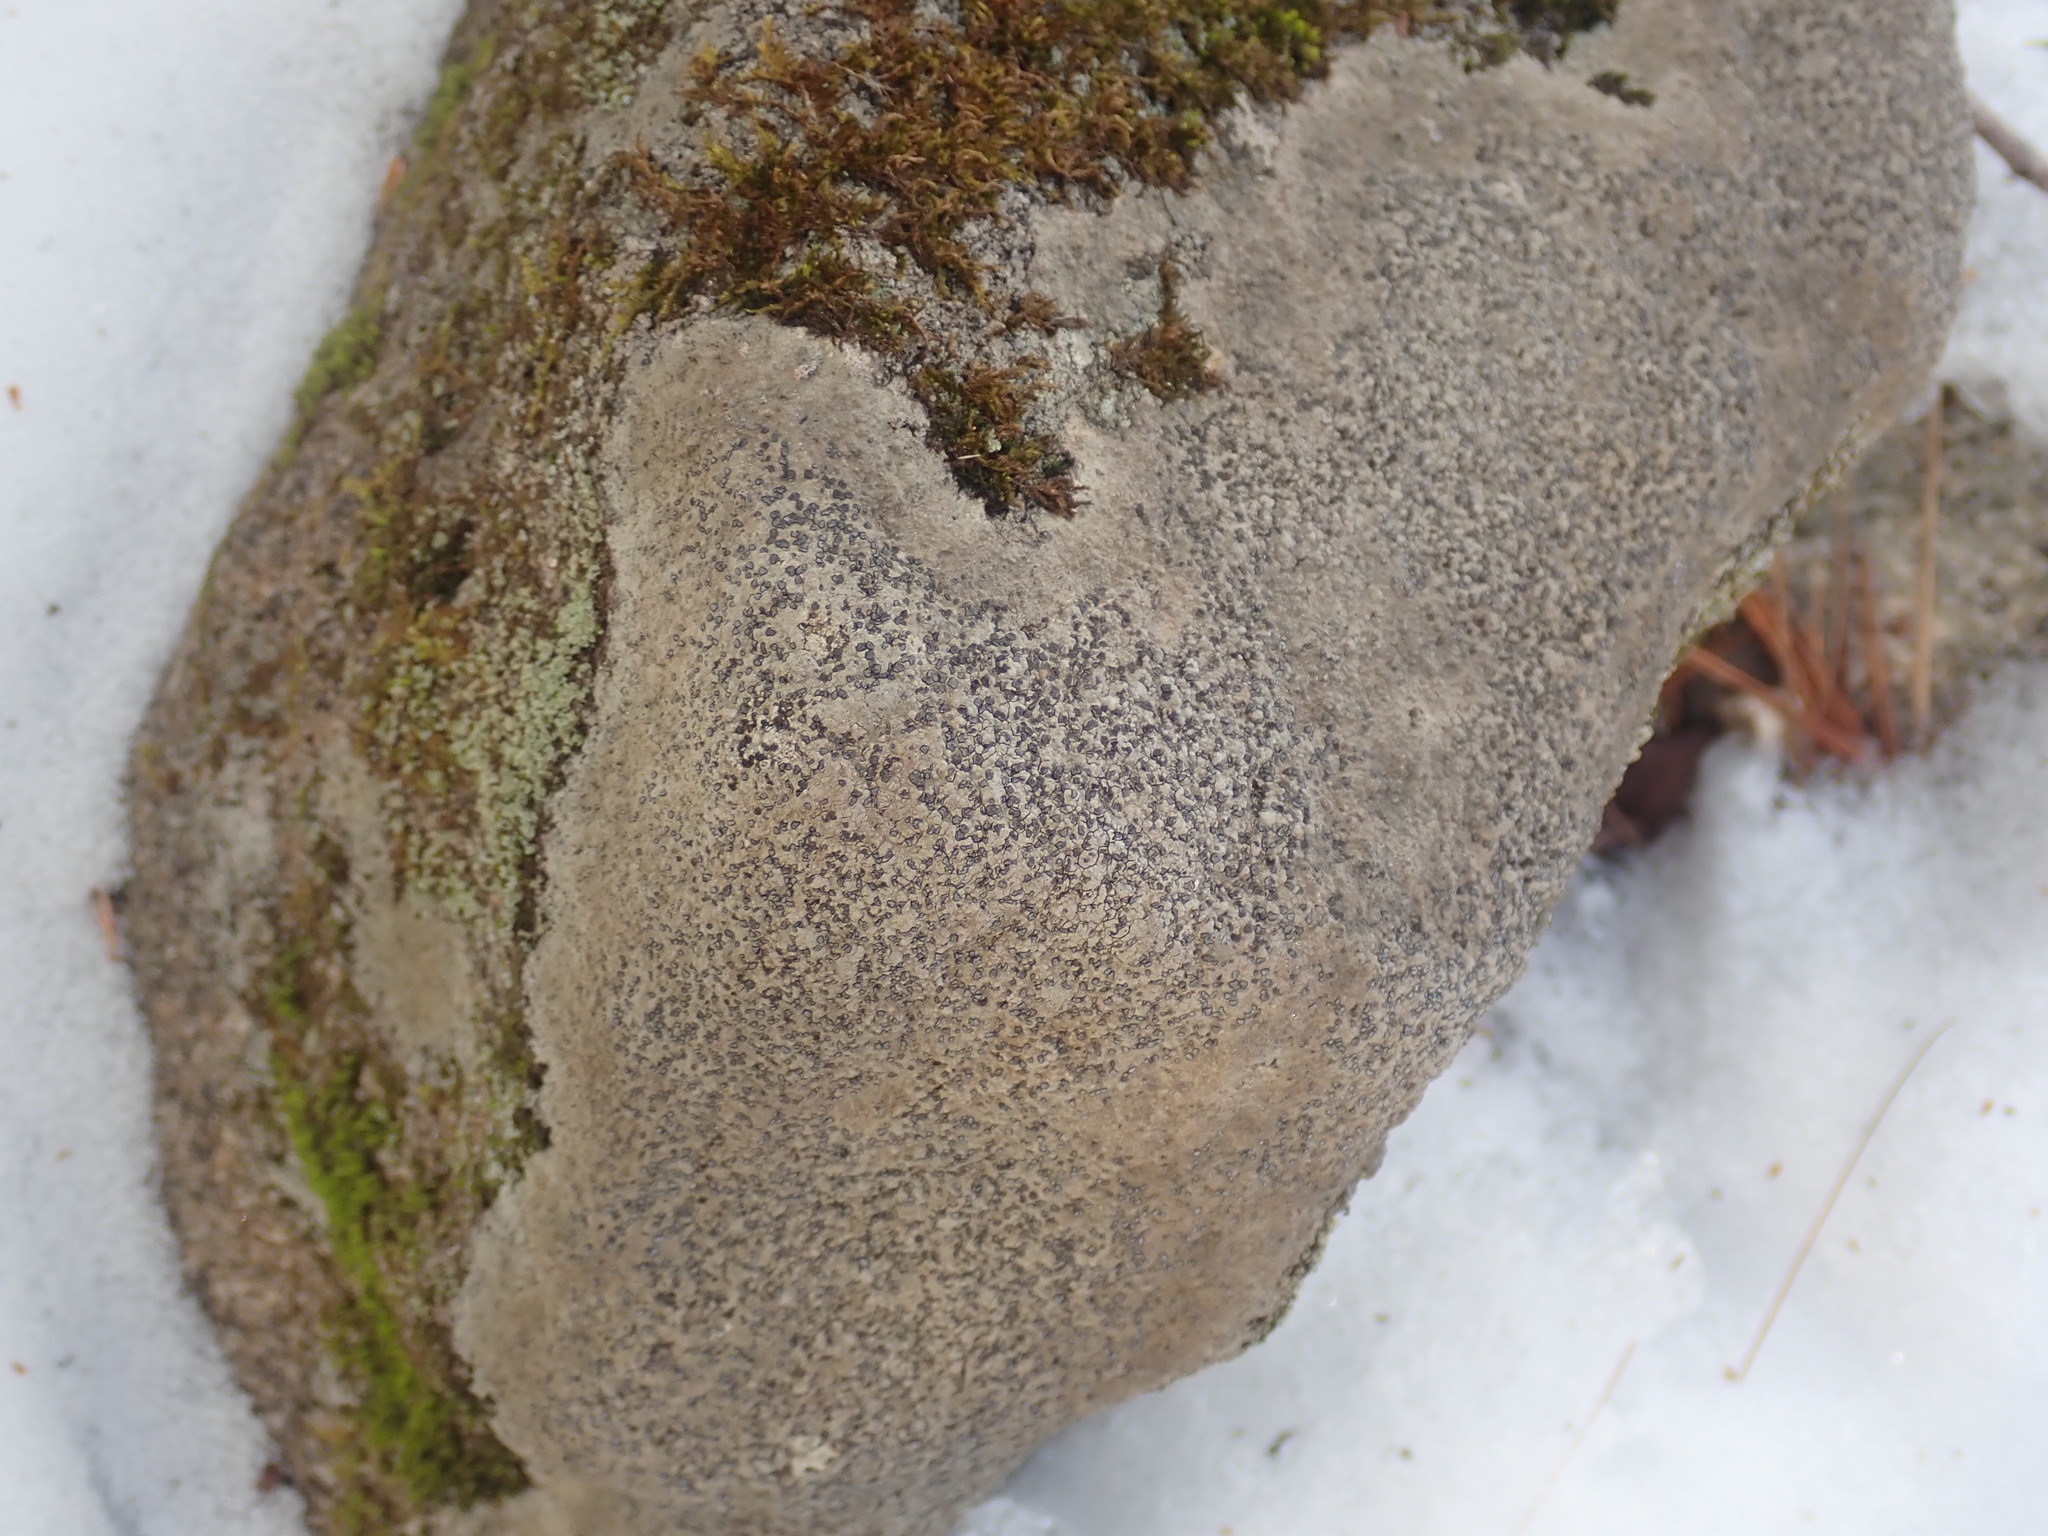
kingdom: Fungi
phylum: Ascomycota
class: Lecanoromycetes
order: Lecideales
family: Lecideaceae
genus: Porpidia
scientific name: Porpidia albocaerulescens
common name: Smokey-eyed boulder lichen
